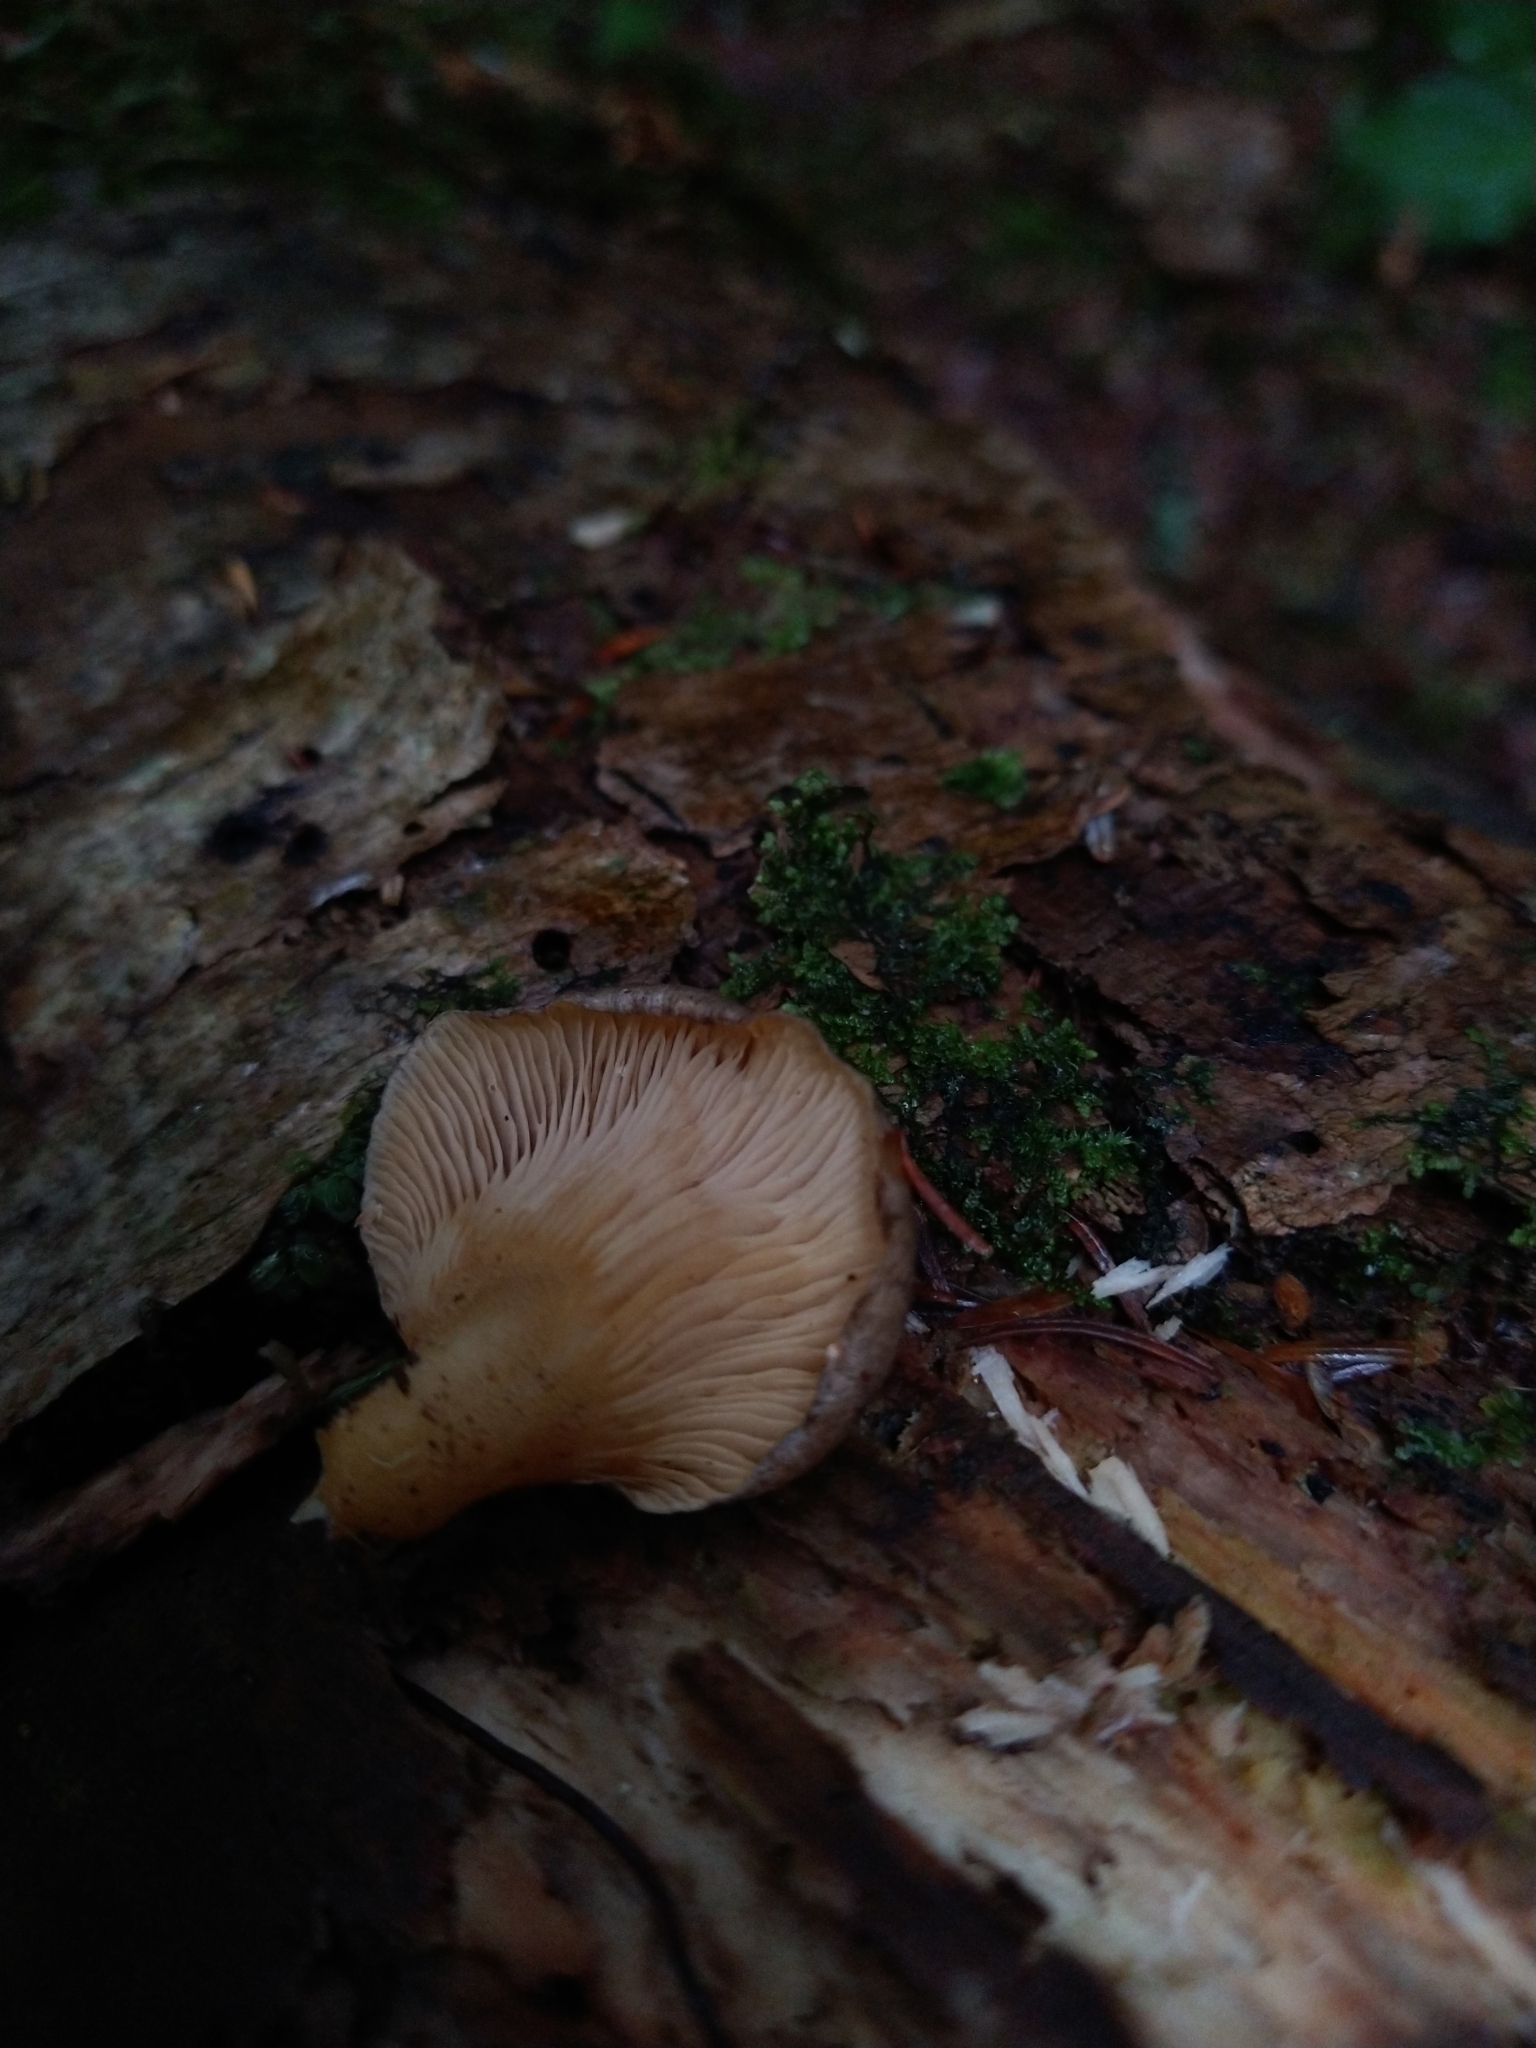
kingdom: Fungi
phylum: Basidiomycota
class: Agaricomycetes
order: Agaricales
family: Sarcomyxaceae
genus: Sarcomyxa
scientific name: Sarcomyxa serotina
